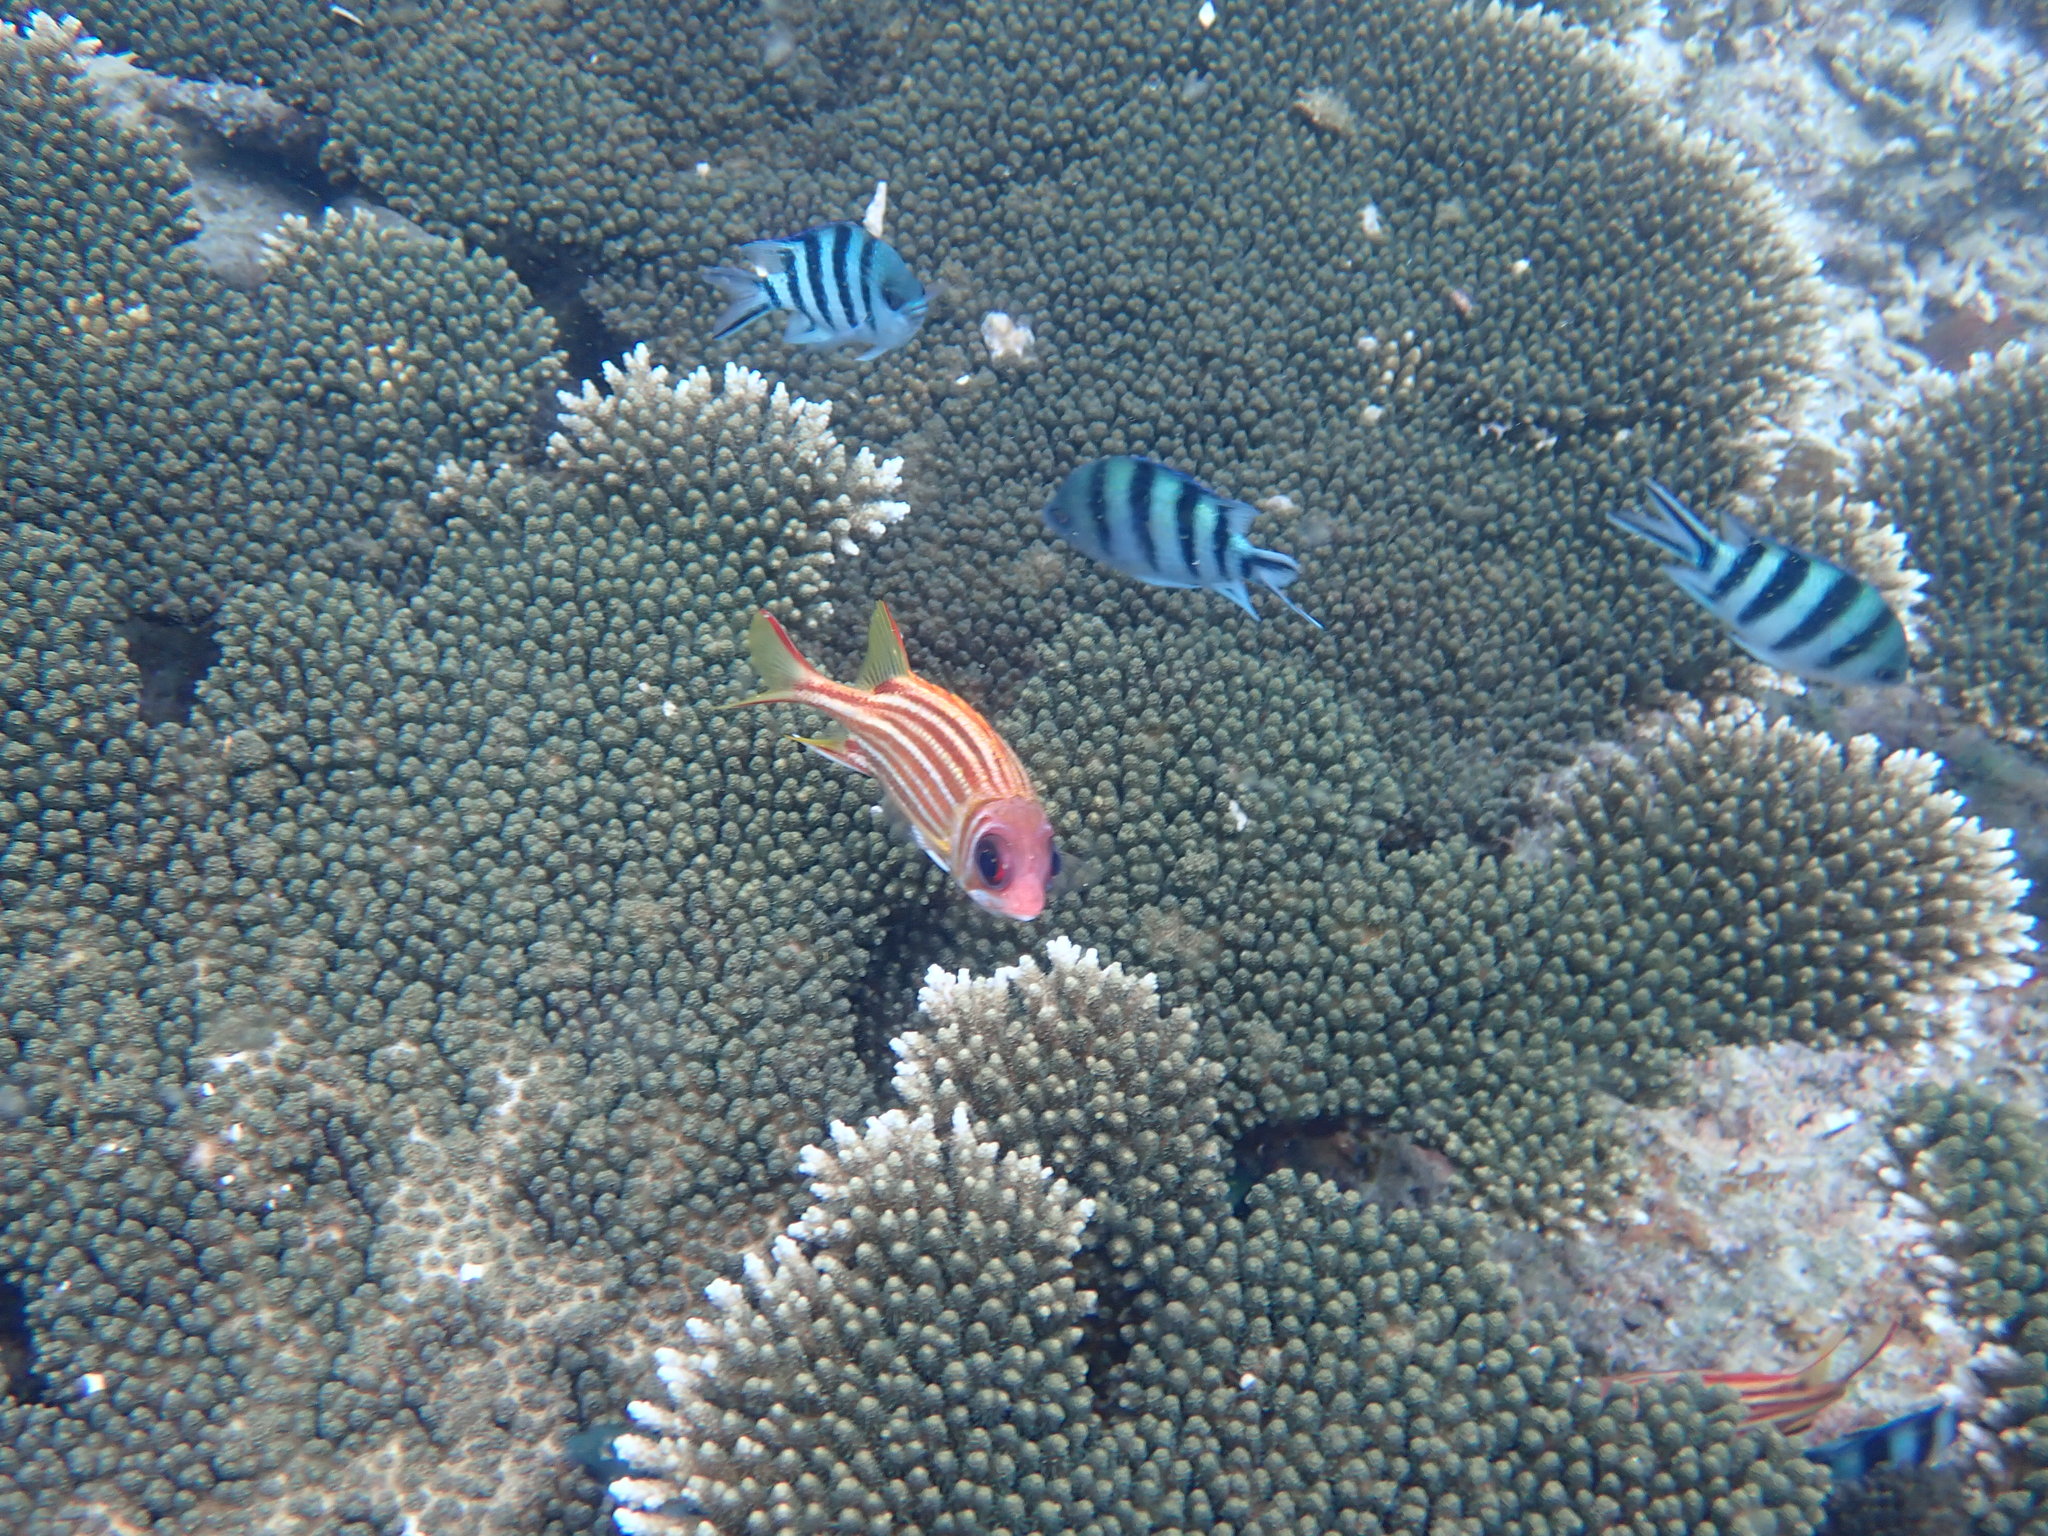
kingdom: Animalia
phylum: Chordata
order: Beryciformes
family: Holocentridae
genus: Sargocentron
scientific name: Sargocentron rubrum
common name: Redcoat
